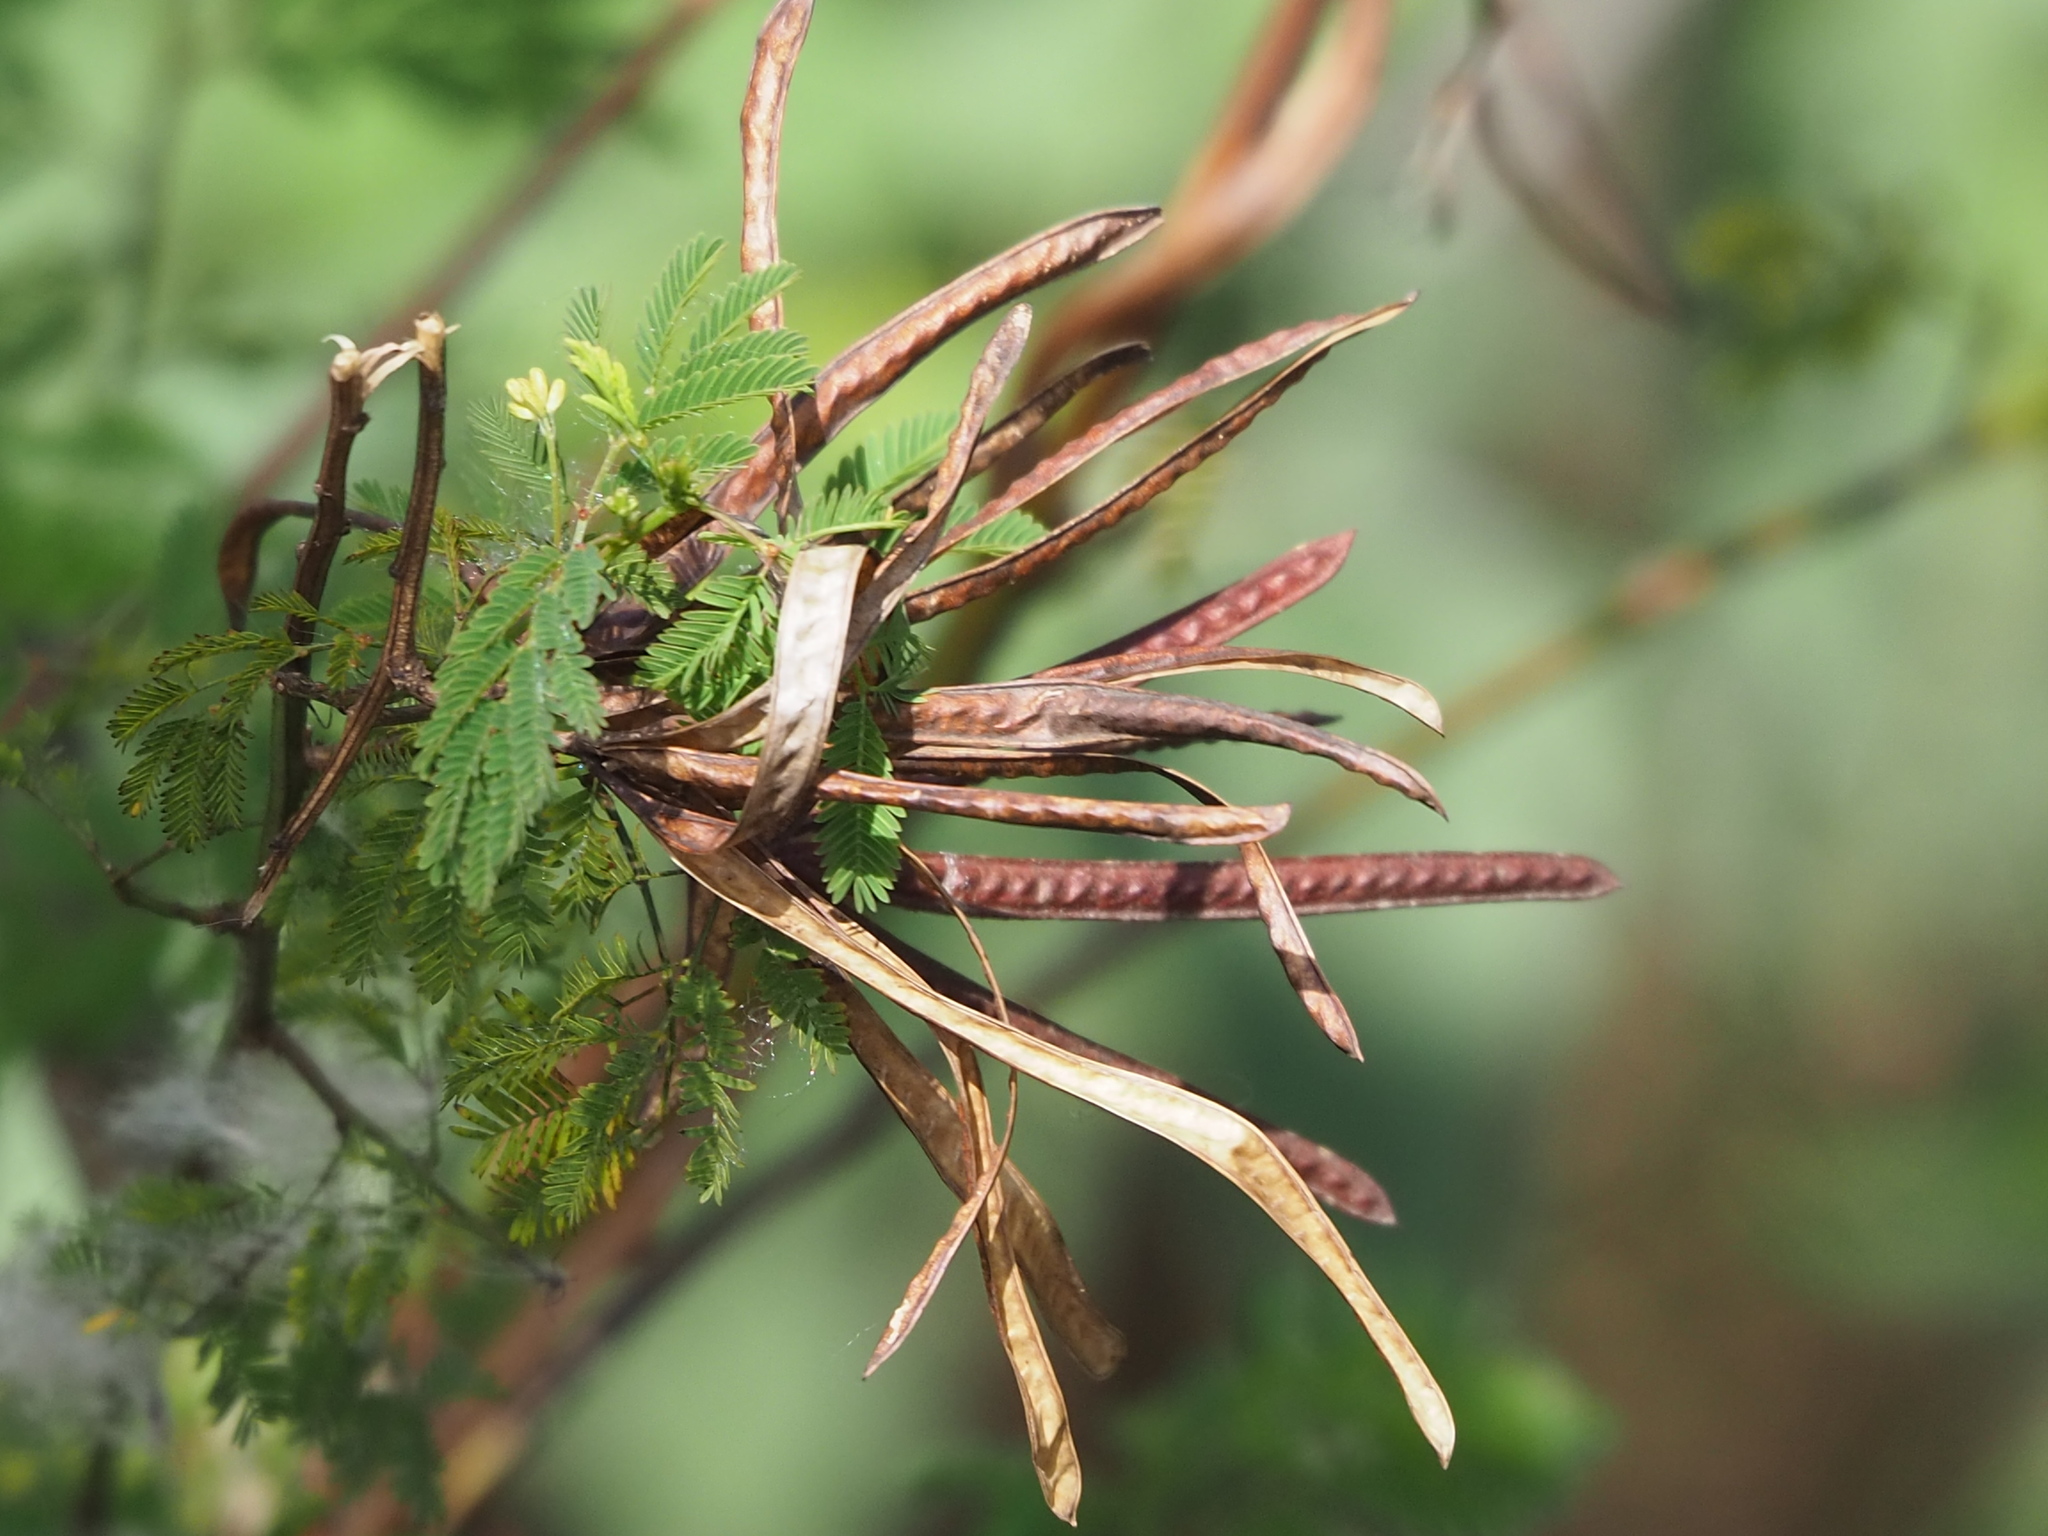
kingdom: Plantae
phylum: Tracheophyta
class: Magnoliopsida
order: Fabales
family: Fabaceae
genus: Desmanthus
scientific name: Desmanthus virgatus
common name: Wild tantan
